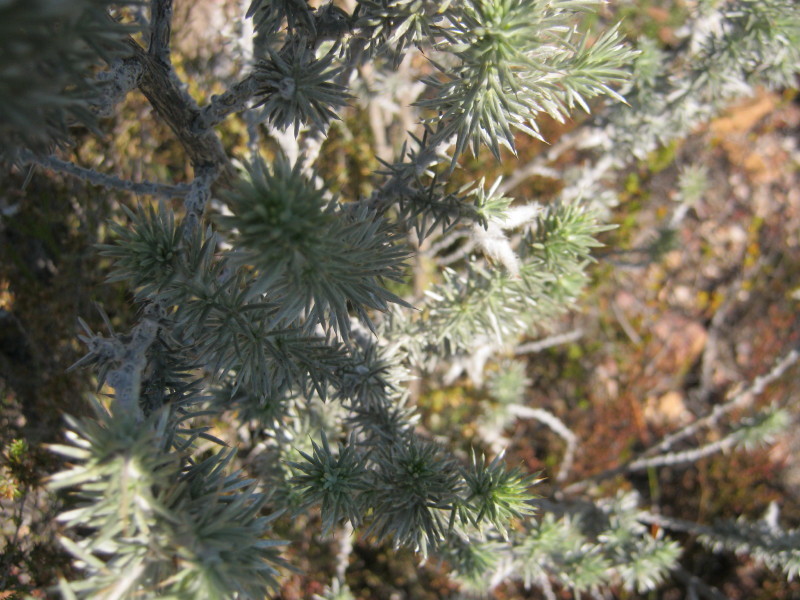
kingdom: Plantae
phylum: Tracheophyta
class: Magnoliopsida
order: Fabales
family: Fabaceae
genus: Aspalathus
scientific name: Aspalathus hystrix
